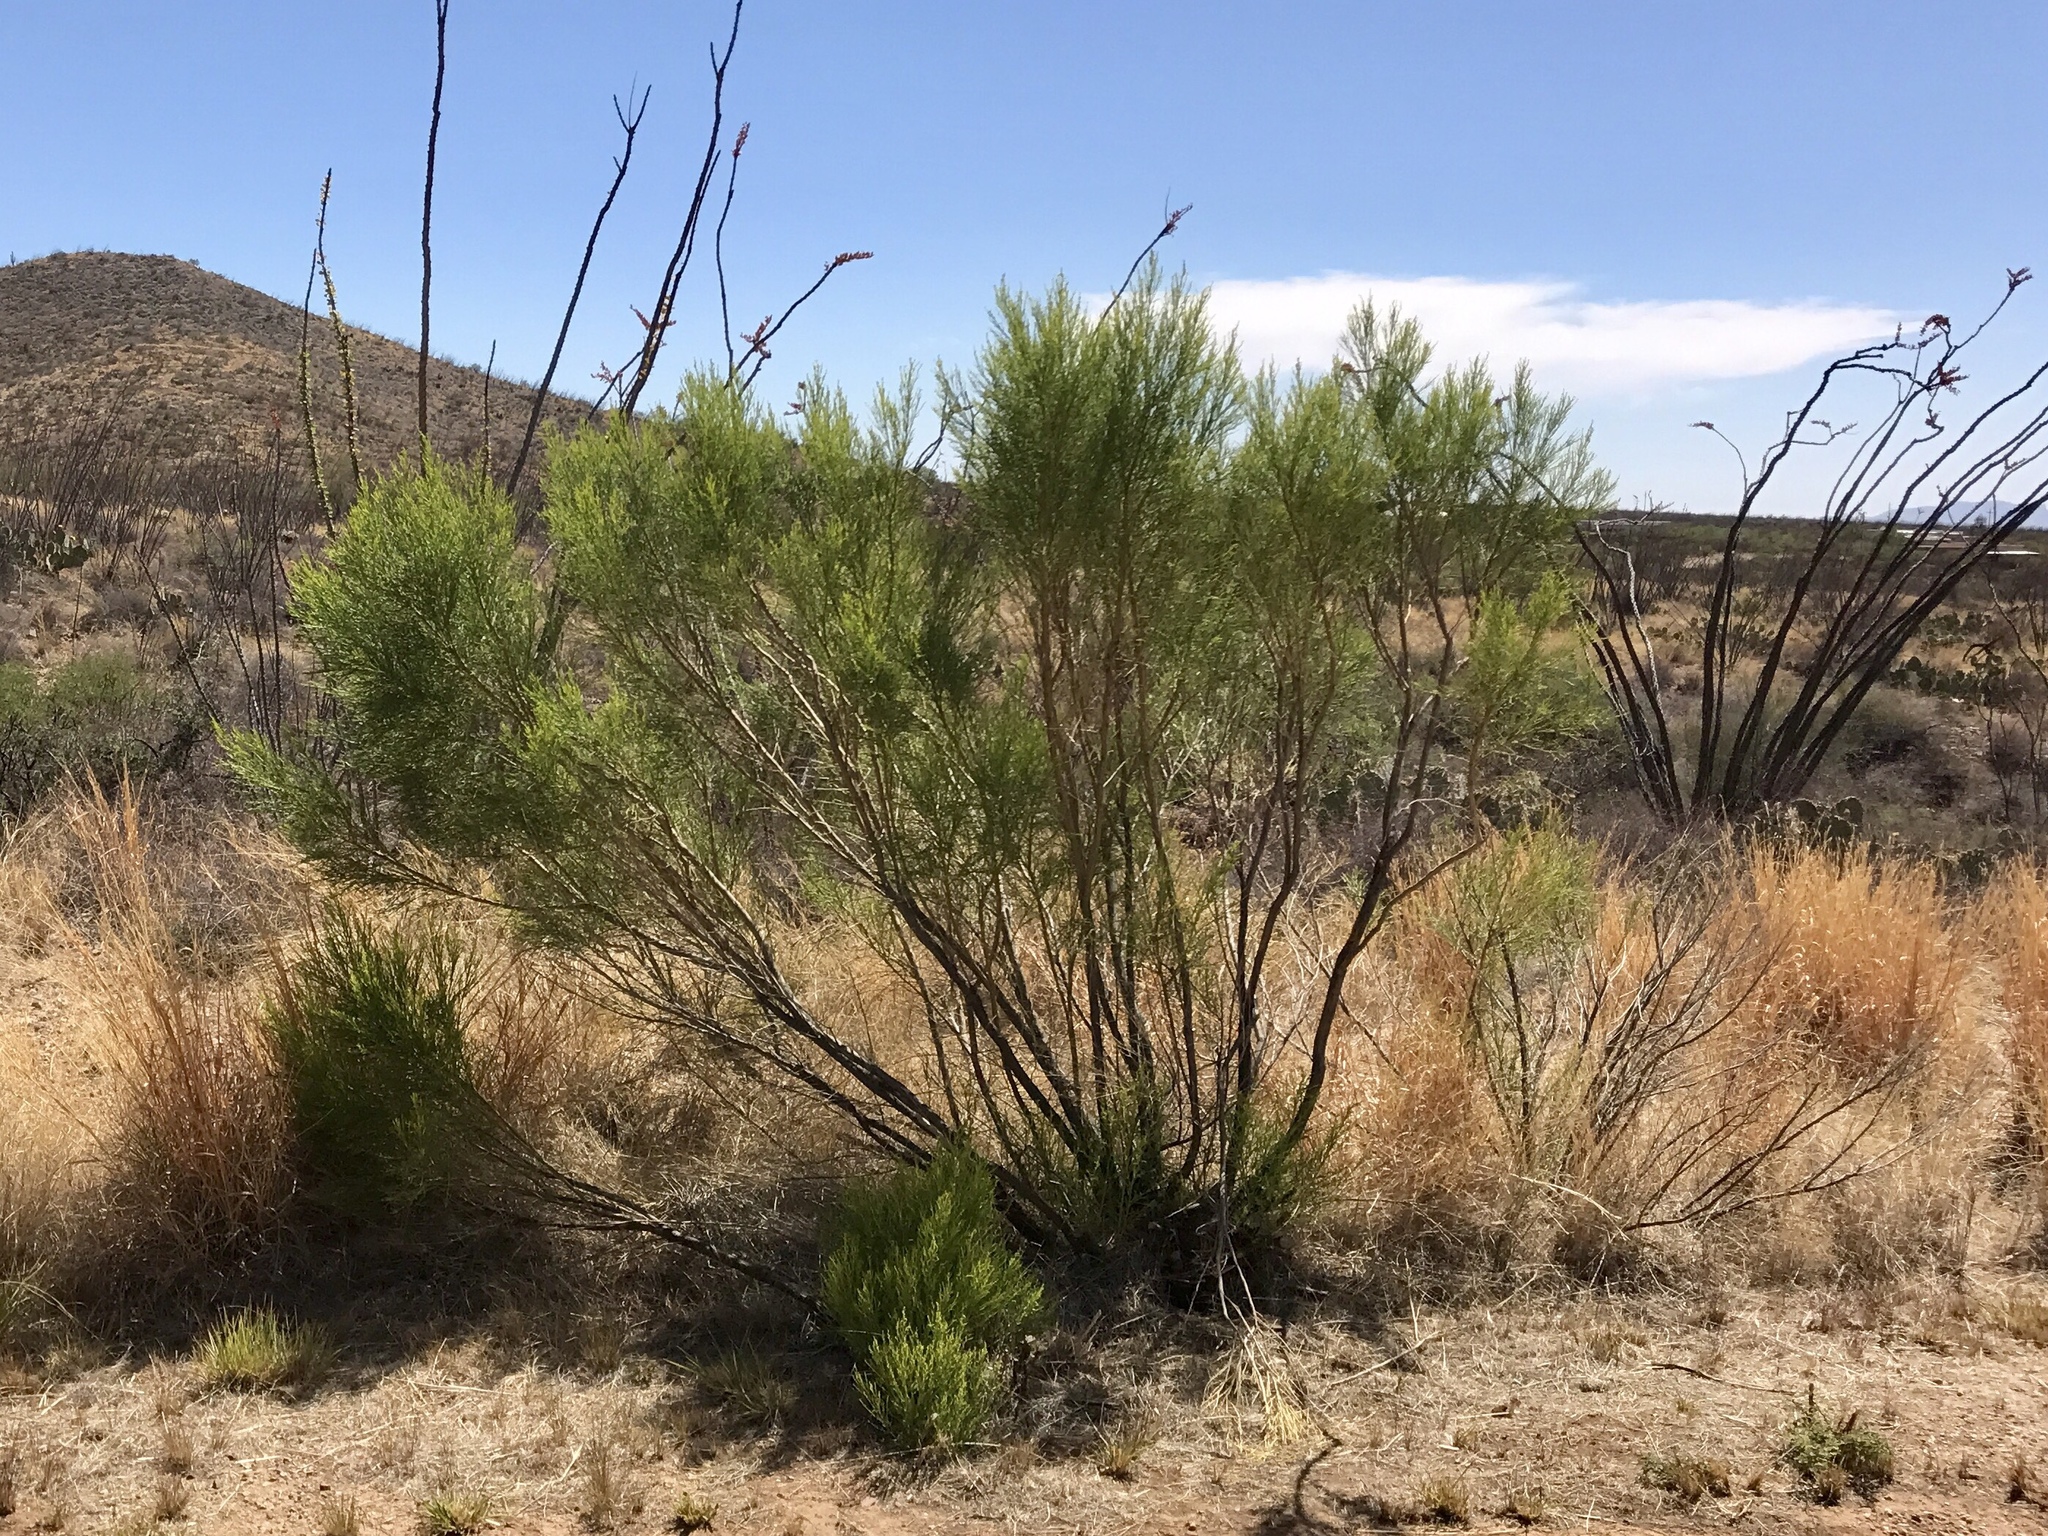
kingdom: Plantae
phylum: Tracheophyta
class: Magnoliopsida
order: Asterales
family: Asteraceae
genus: Baccharis
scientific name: Baccharis sarothroides
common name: Desert-broom
